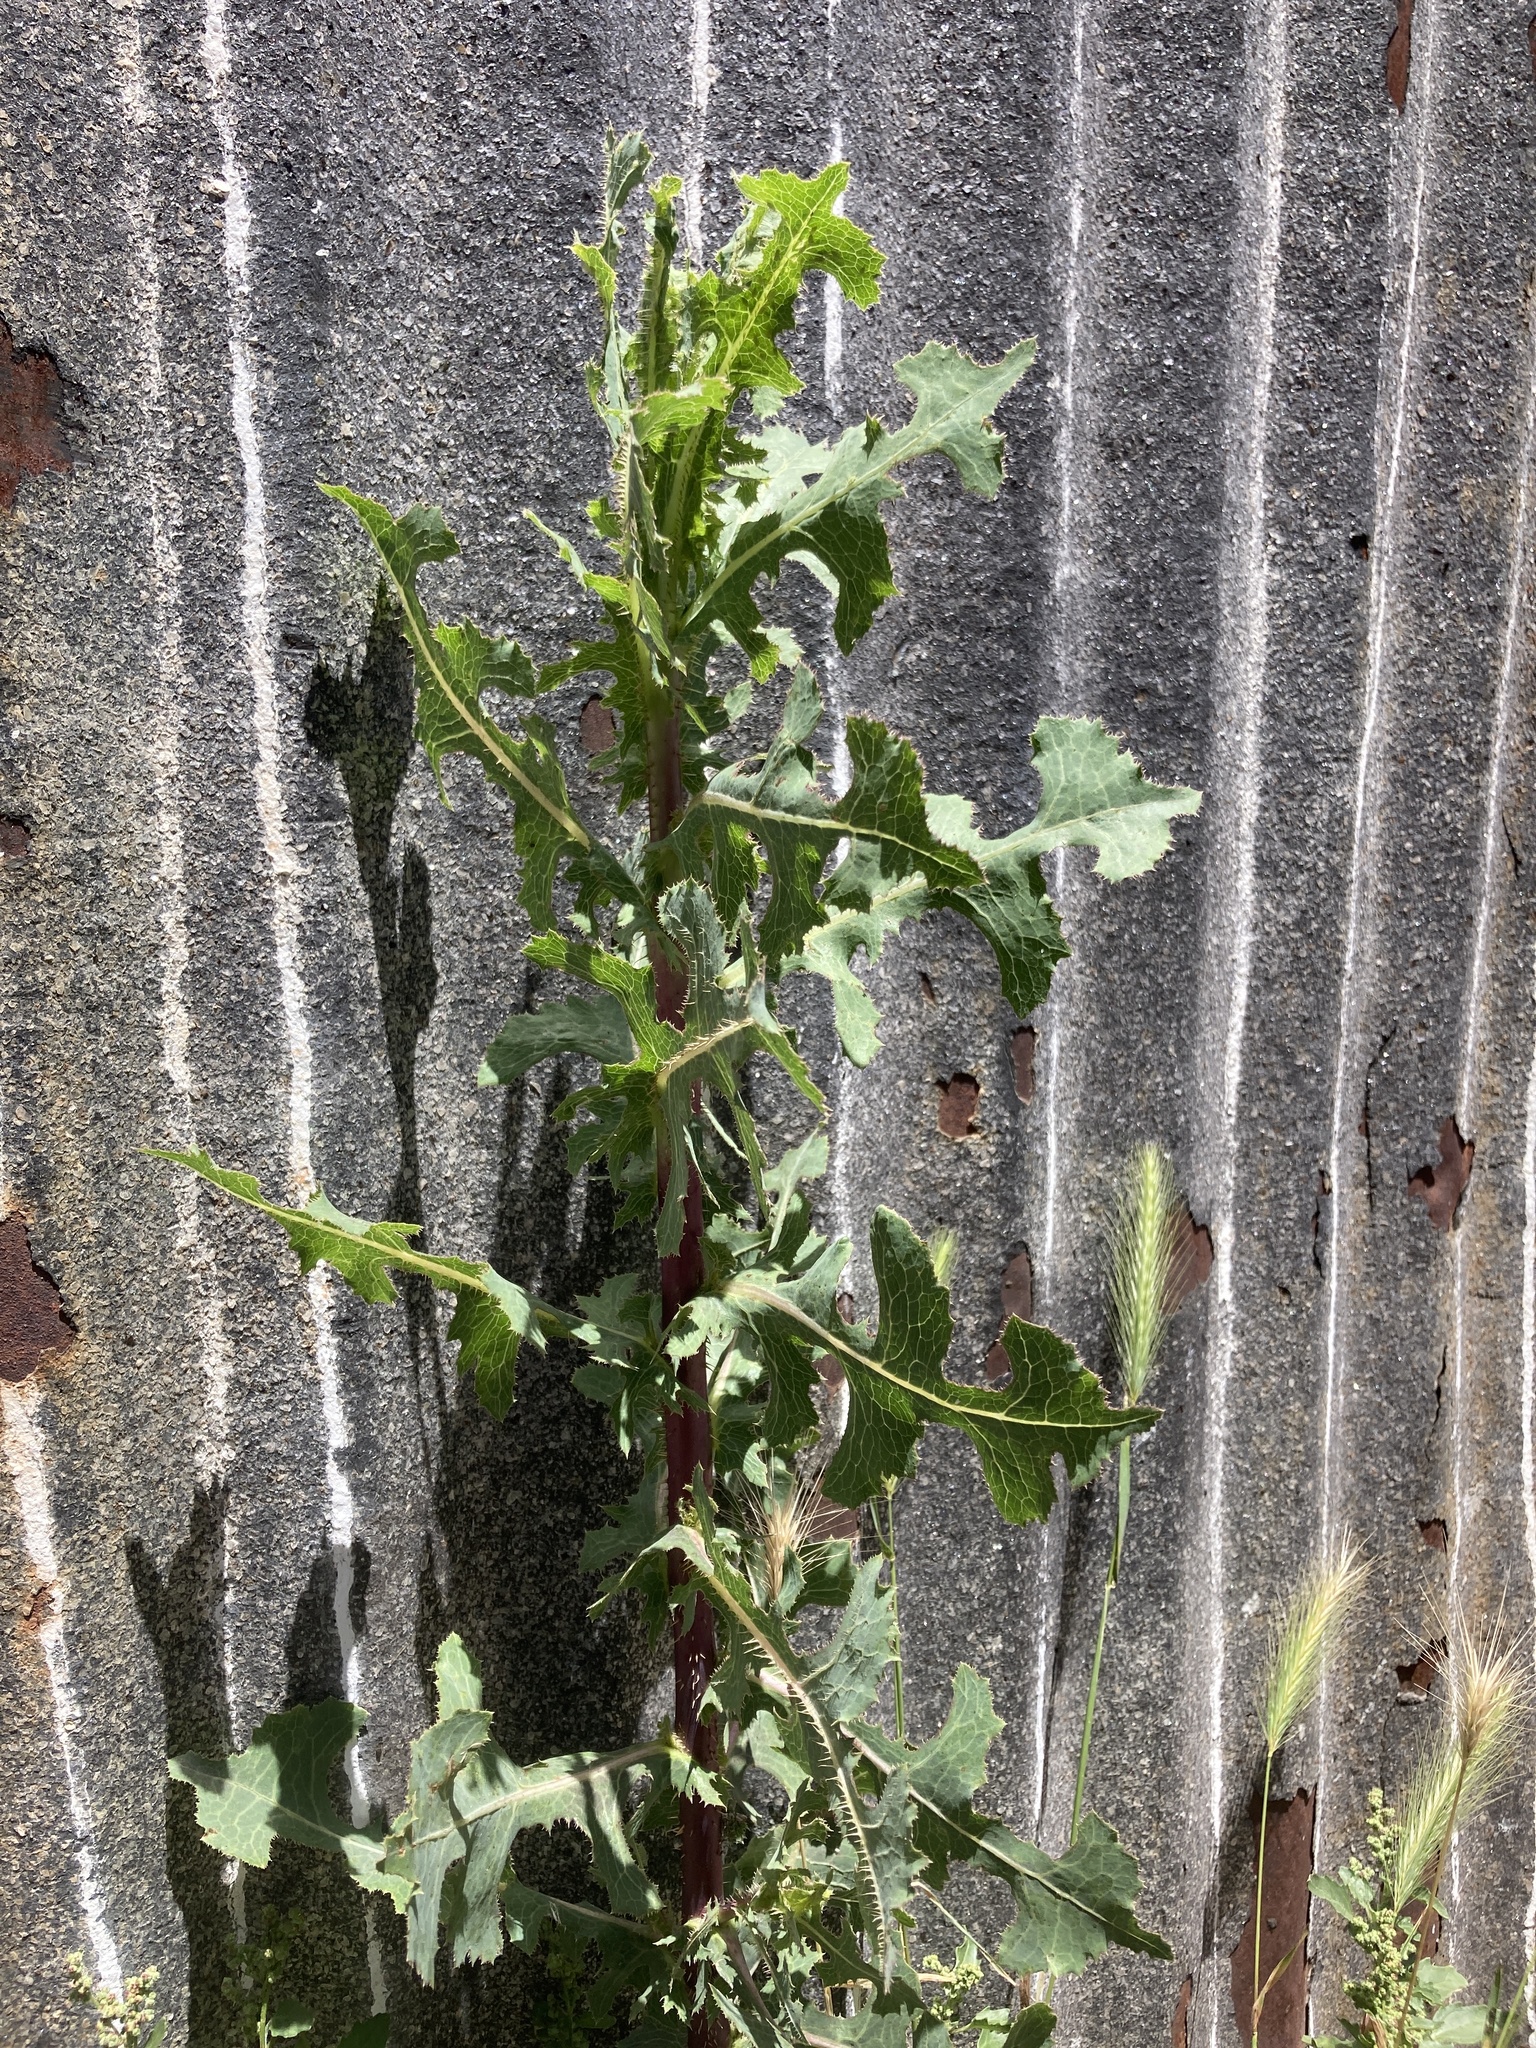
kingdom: Plantae
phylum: Tracheophyta
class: Magnoliopsida
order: Asterales
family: Asteraceae
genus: Lactuca
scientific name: Lactuca serriola
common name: Prickly lettuce
